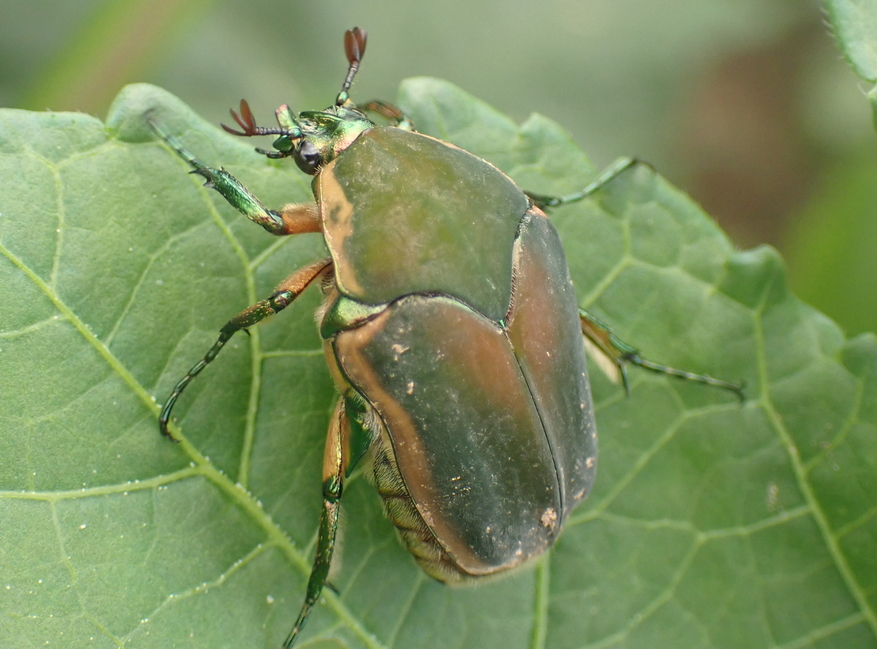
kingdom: Animalia
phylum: Arthropoda
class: Insecta
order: Coleoptera
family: Scarabaeidae
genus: Cotinis
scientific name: Cotinis nitida
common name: Common green june beetle
